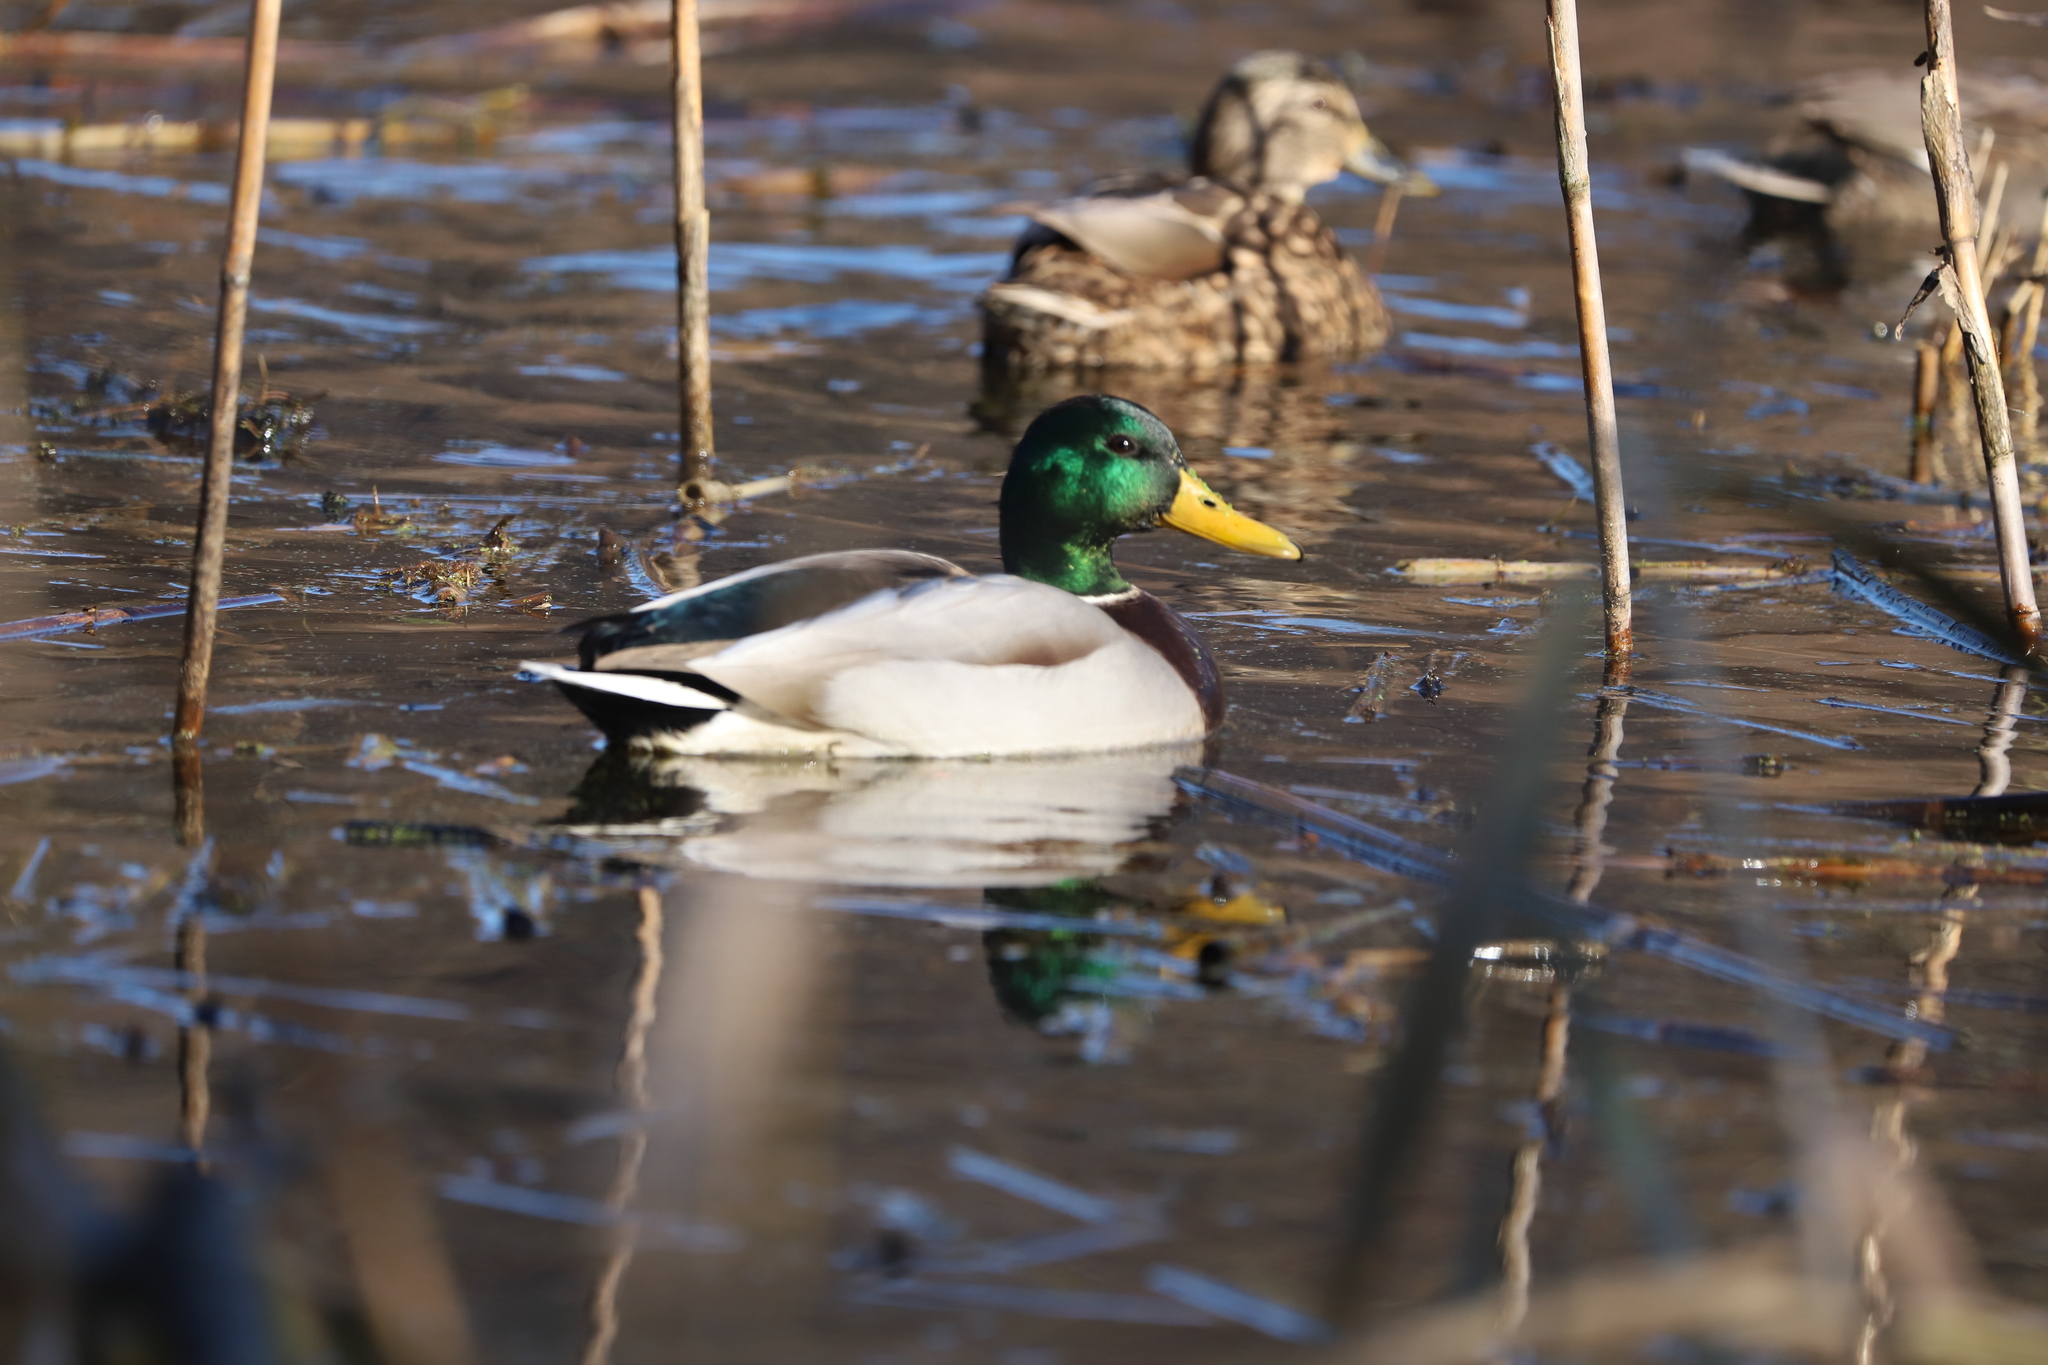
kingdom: Animalia
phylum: Chordata
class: Aves
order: Anseriformes
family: Anatidae
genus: Anas
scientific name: Anas platyrhynchos
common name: Mallard
